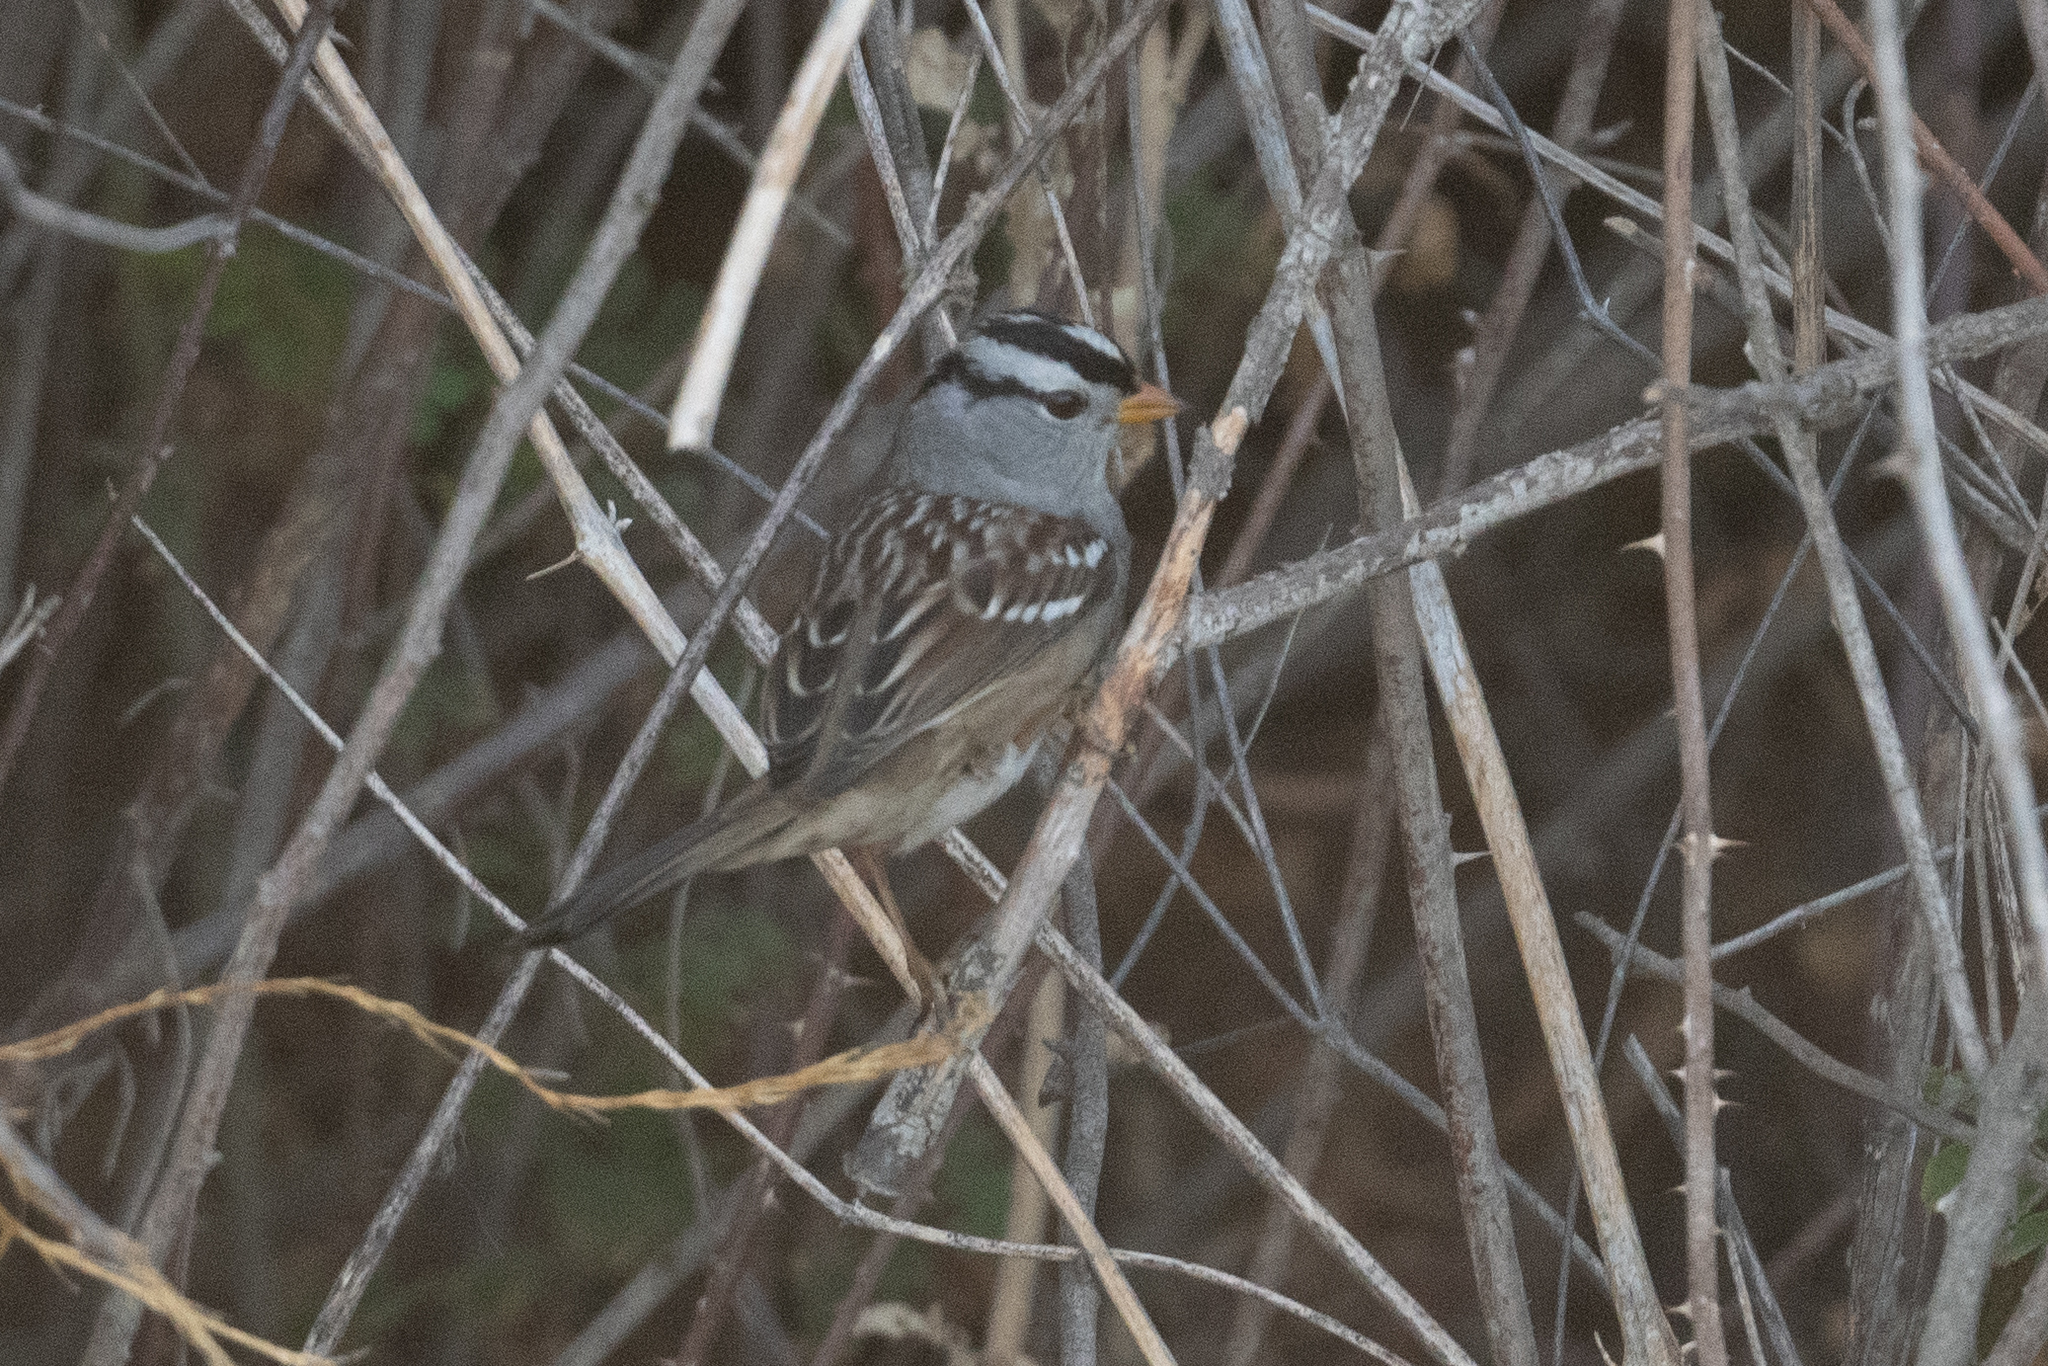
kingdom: Animalia
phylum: Chordata
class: Aves
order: Passeriformes
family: Passerellidae
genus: Zonotrichia
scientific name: Zonotrichia leucophrys
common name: White-crowned sparrow
